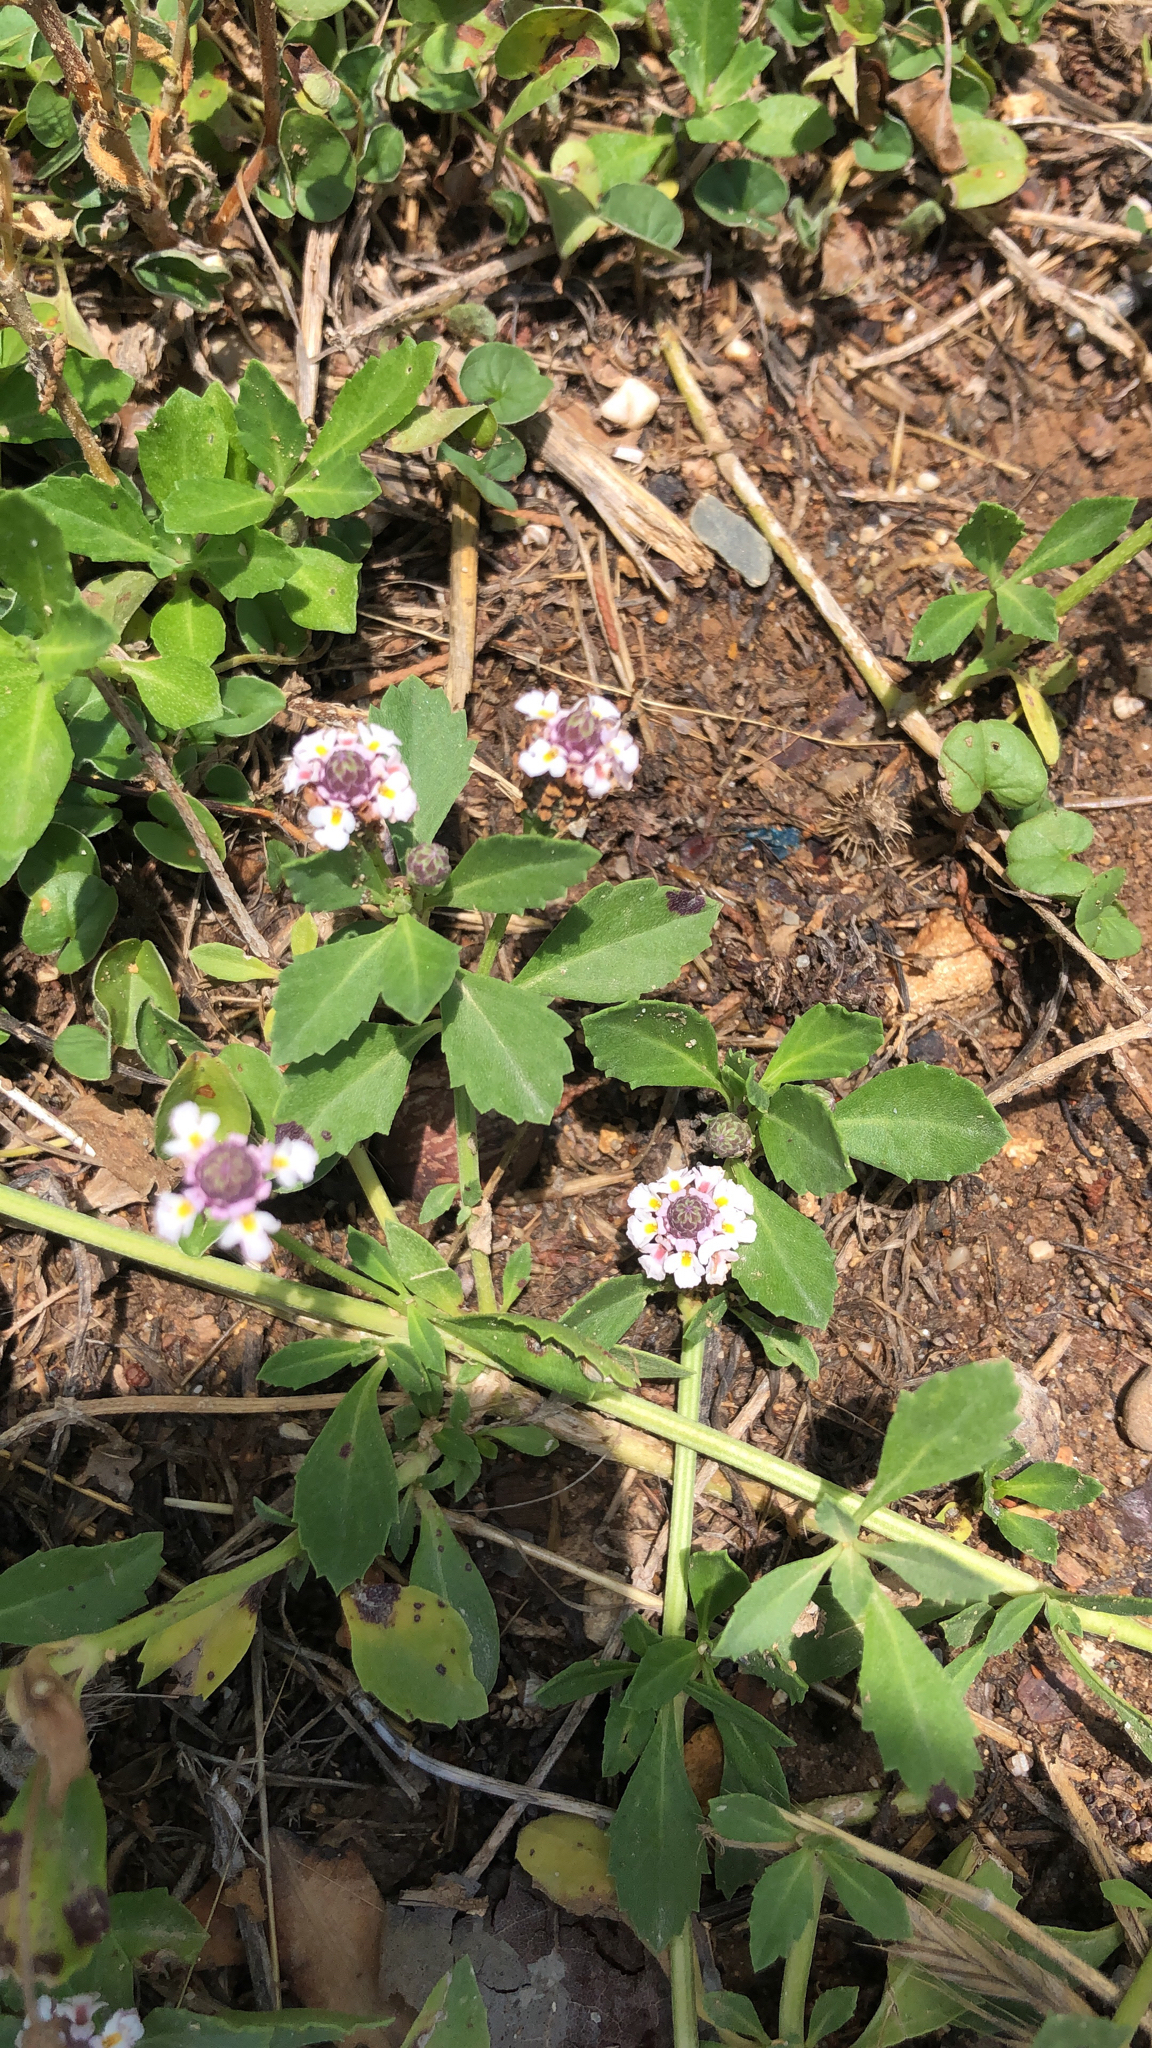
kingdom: Plantae
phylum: Tracheophyta
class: Magnoliopsida
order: Lamiales
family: Verbenaceae
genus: Phyla
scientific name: Phyla nodiflora
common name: Frogfruit
